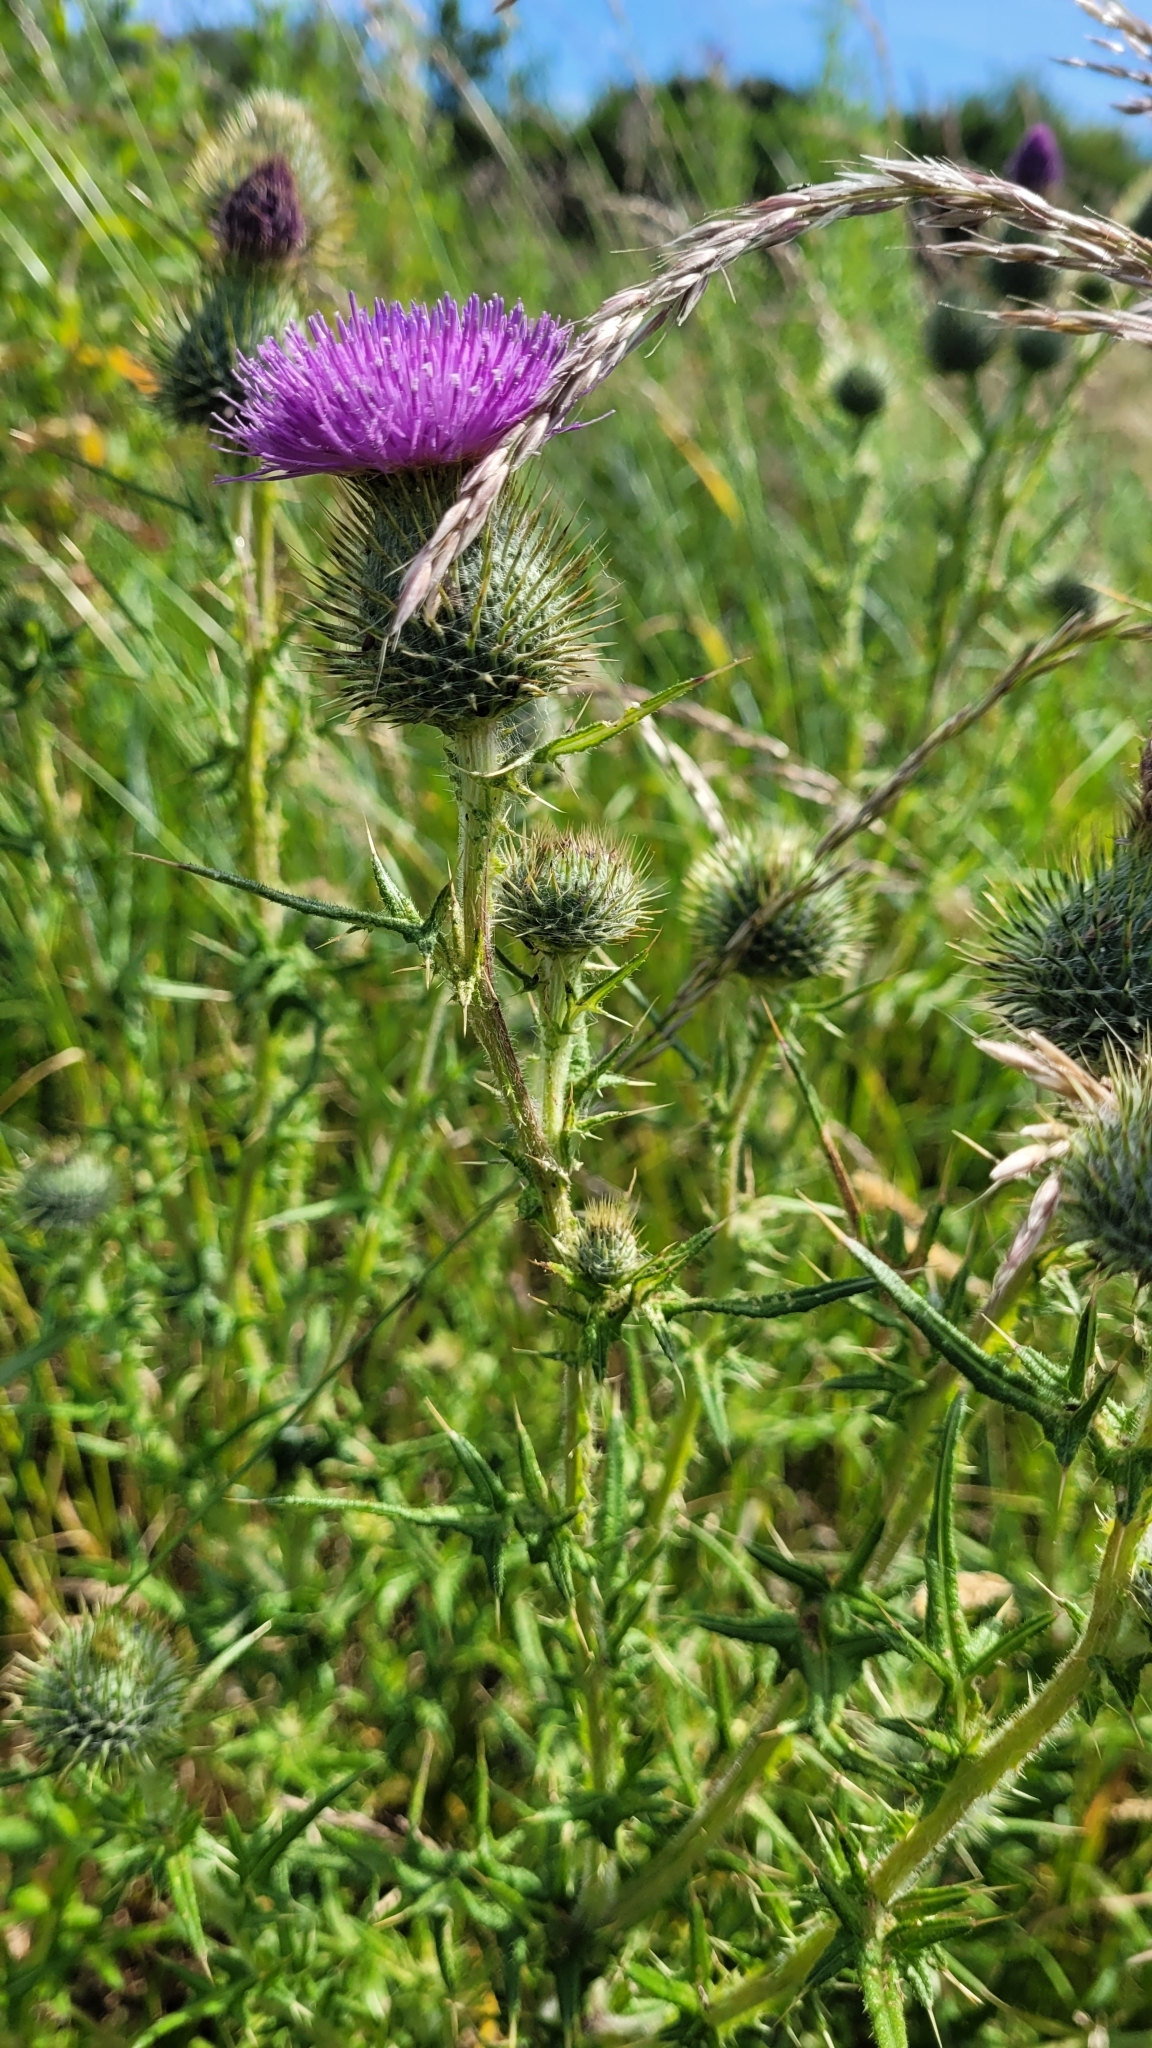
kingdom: Plantae
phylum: Tracheophyta
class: Magnoliopsida
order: Asterales
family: Asteraceae
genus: Cirsium
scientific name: Cirsium vulgare
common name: Bull thistle
